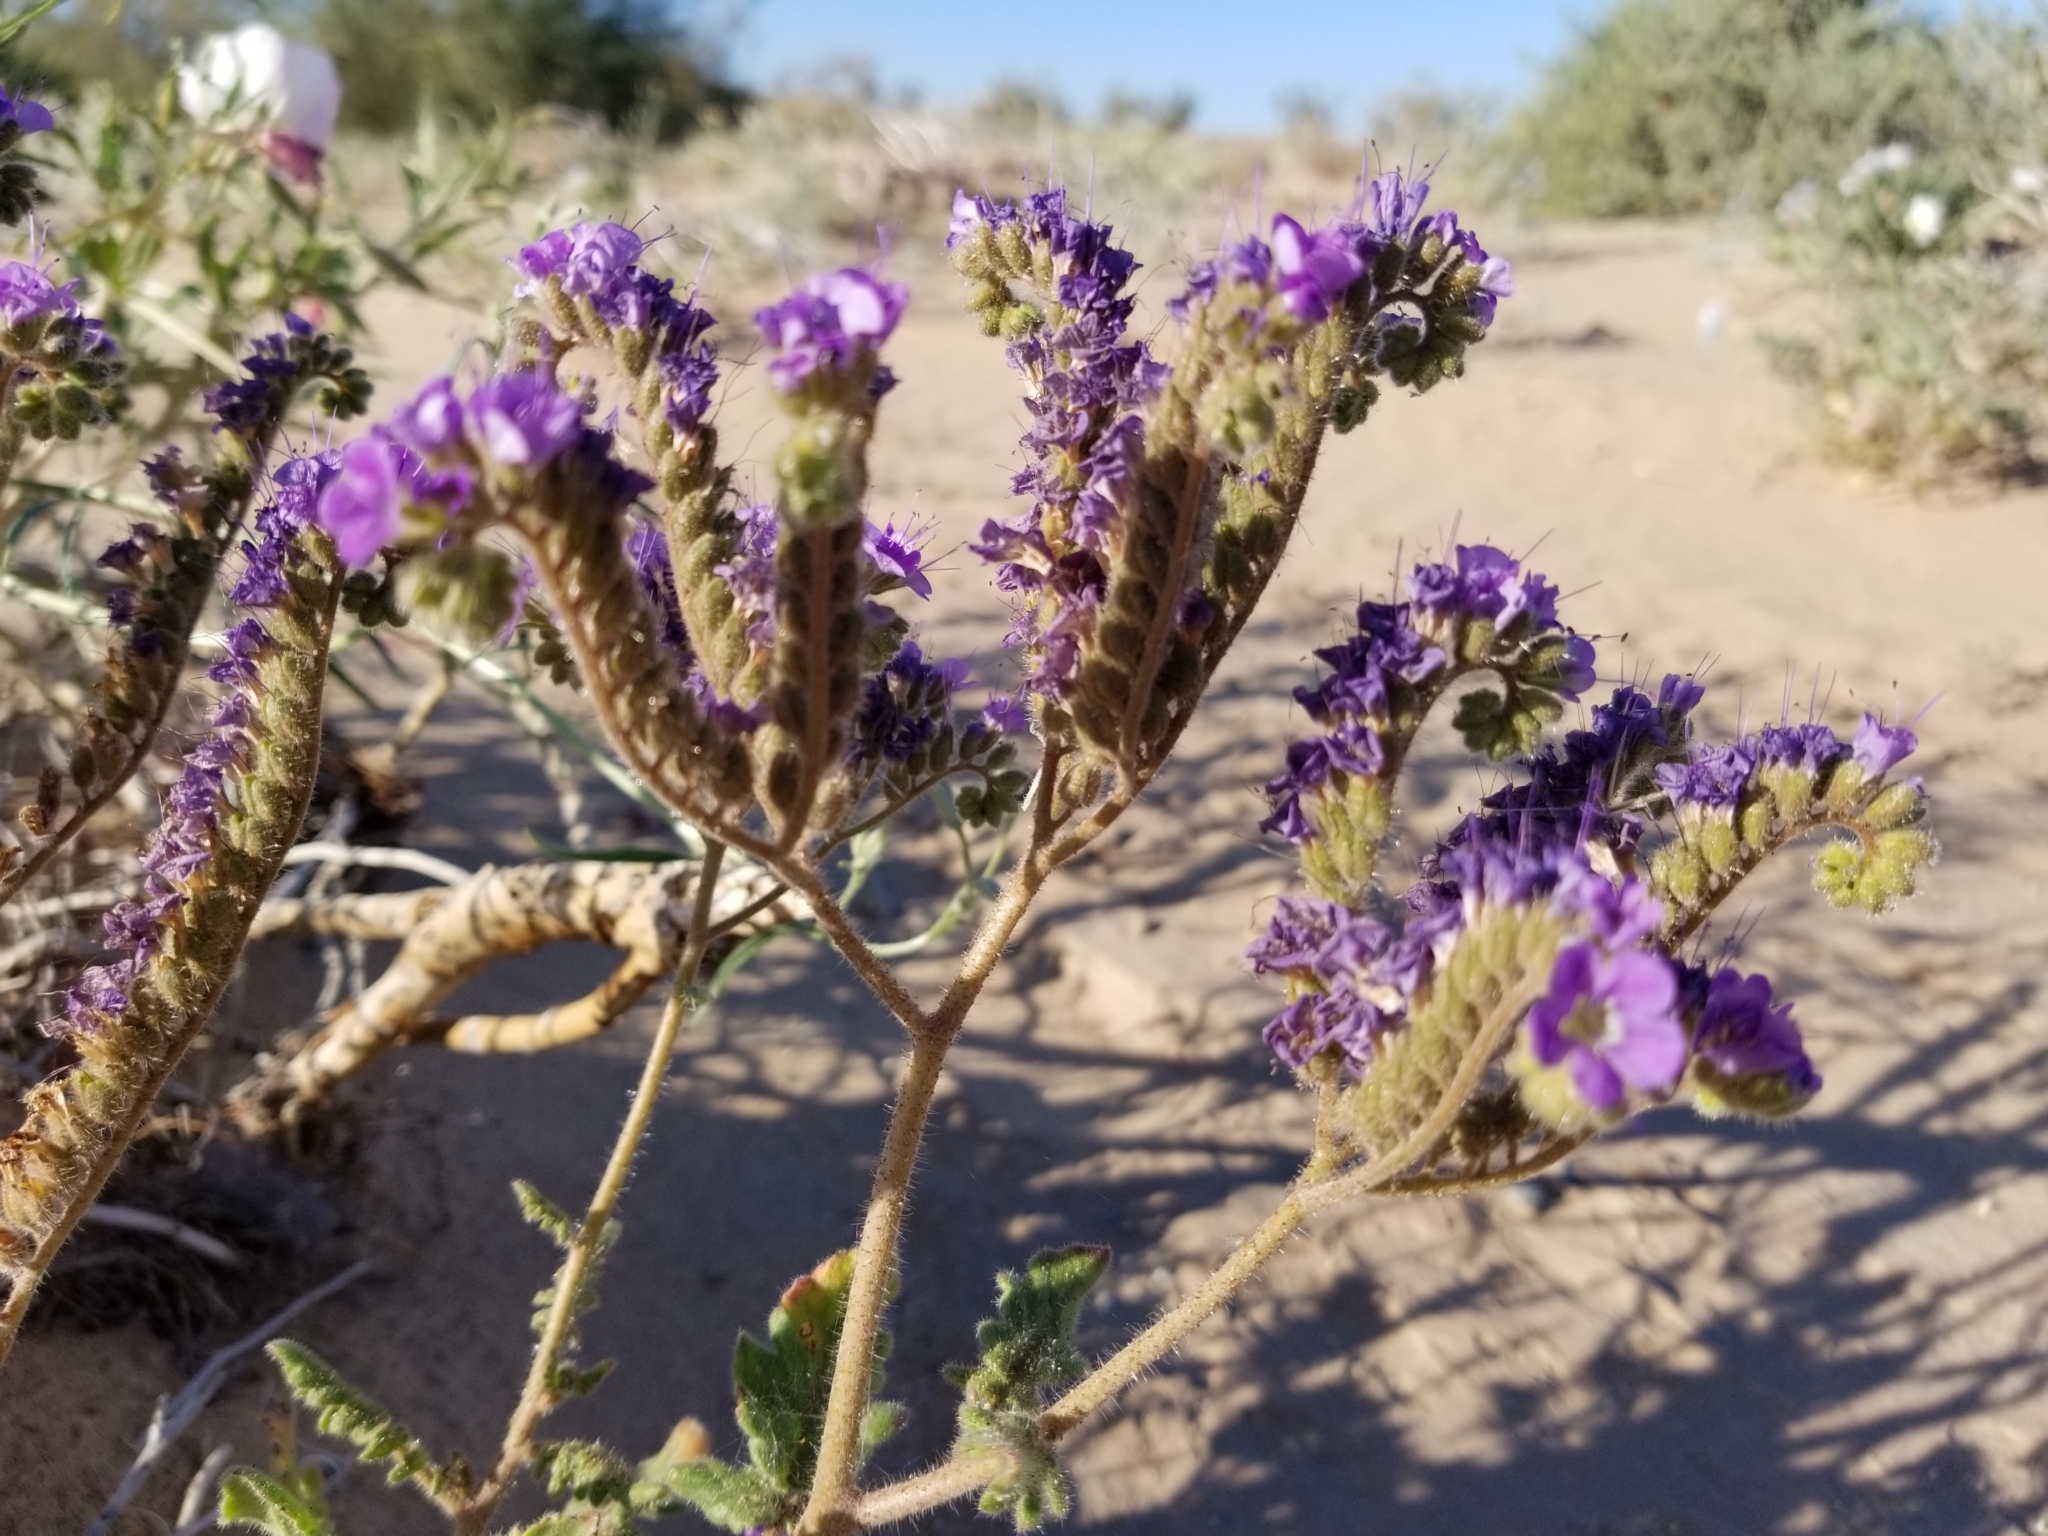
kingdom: Plantae
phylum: Tracheophyta
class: Magnoliopsida
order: Boraginales
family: Hydrophyllaceae
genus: Phacelia
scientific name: Phacelia crenulata
